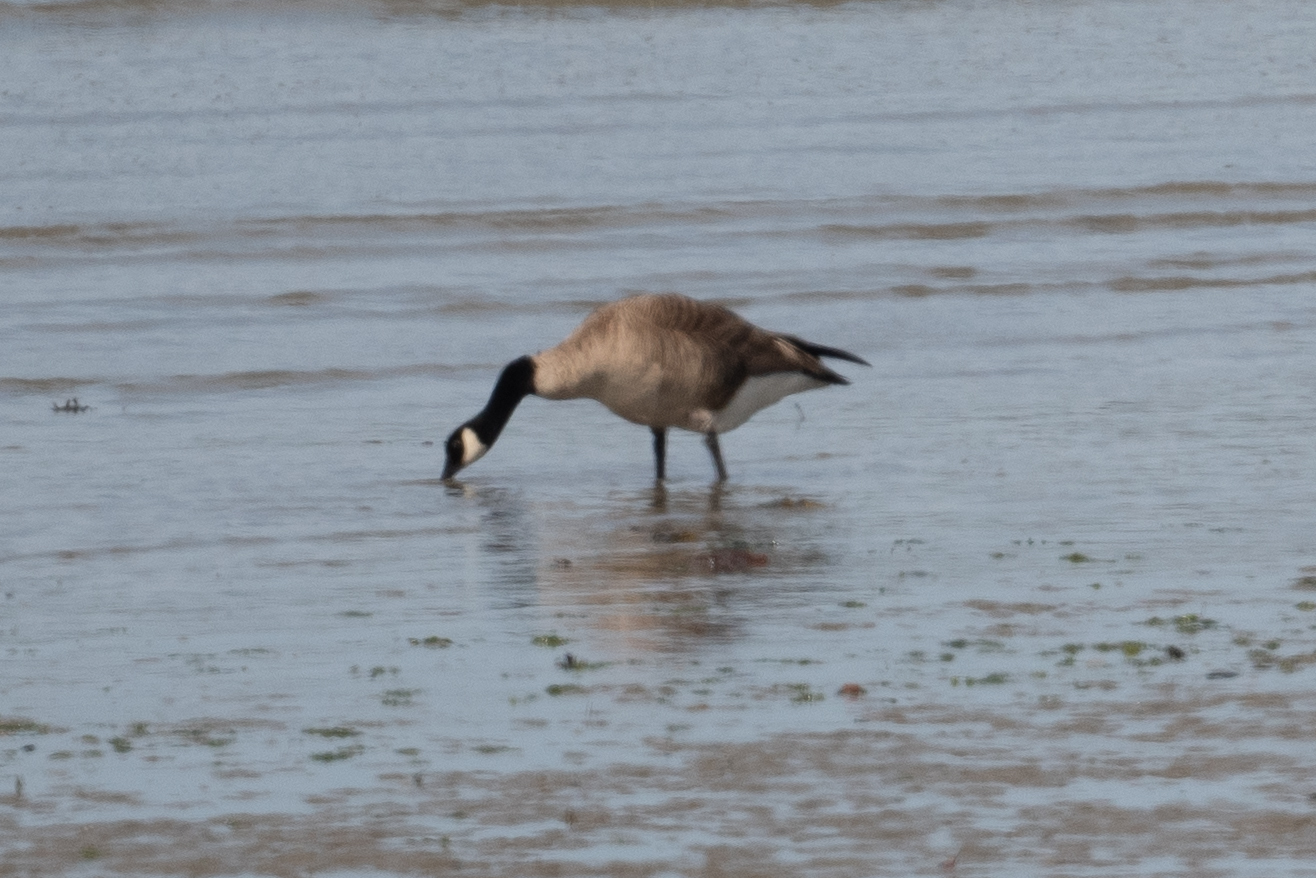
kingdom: Animalia
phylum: Chordata
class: Aves
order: Anseriformes
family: Anatidae
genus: Branta
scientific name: Branta canadensis
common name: Canada goose
